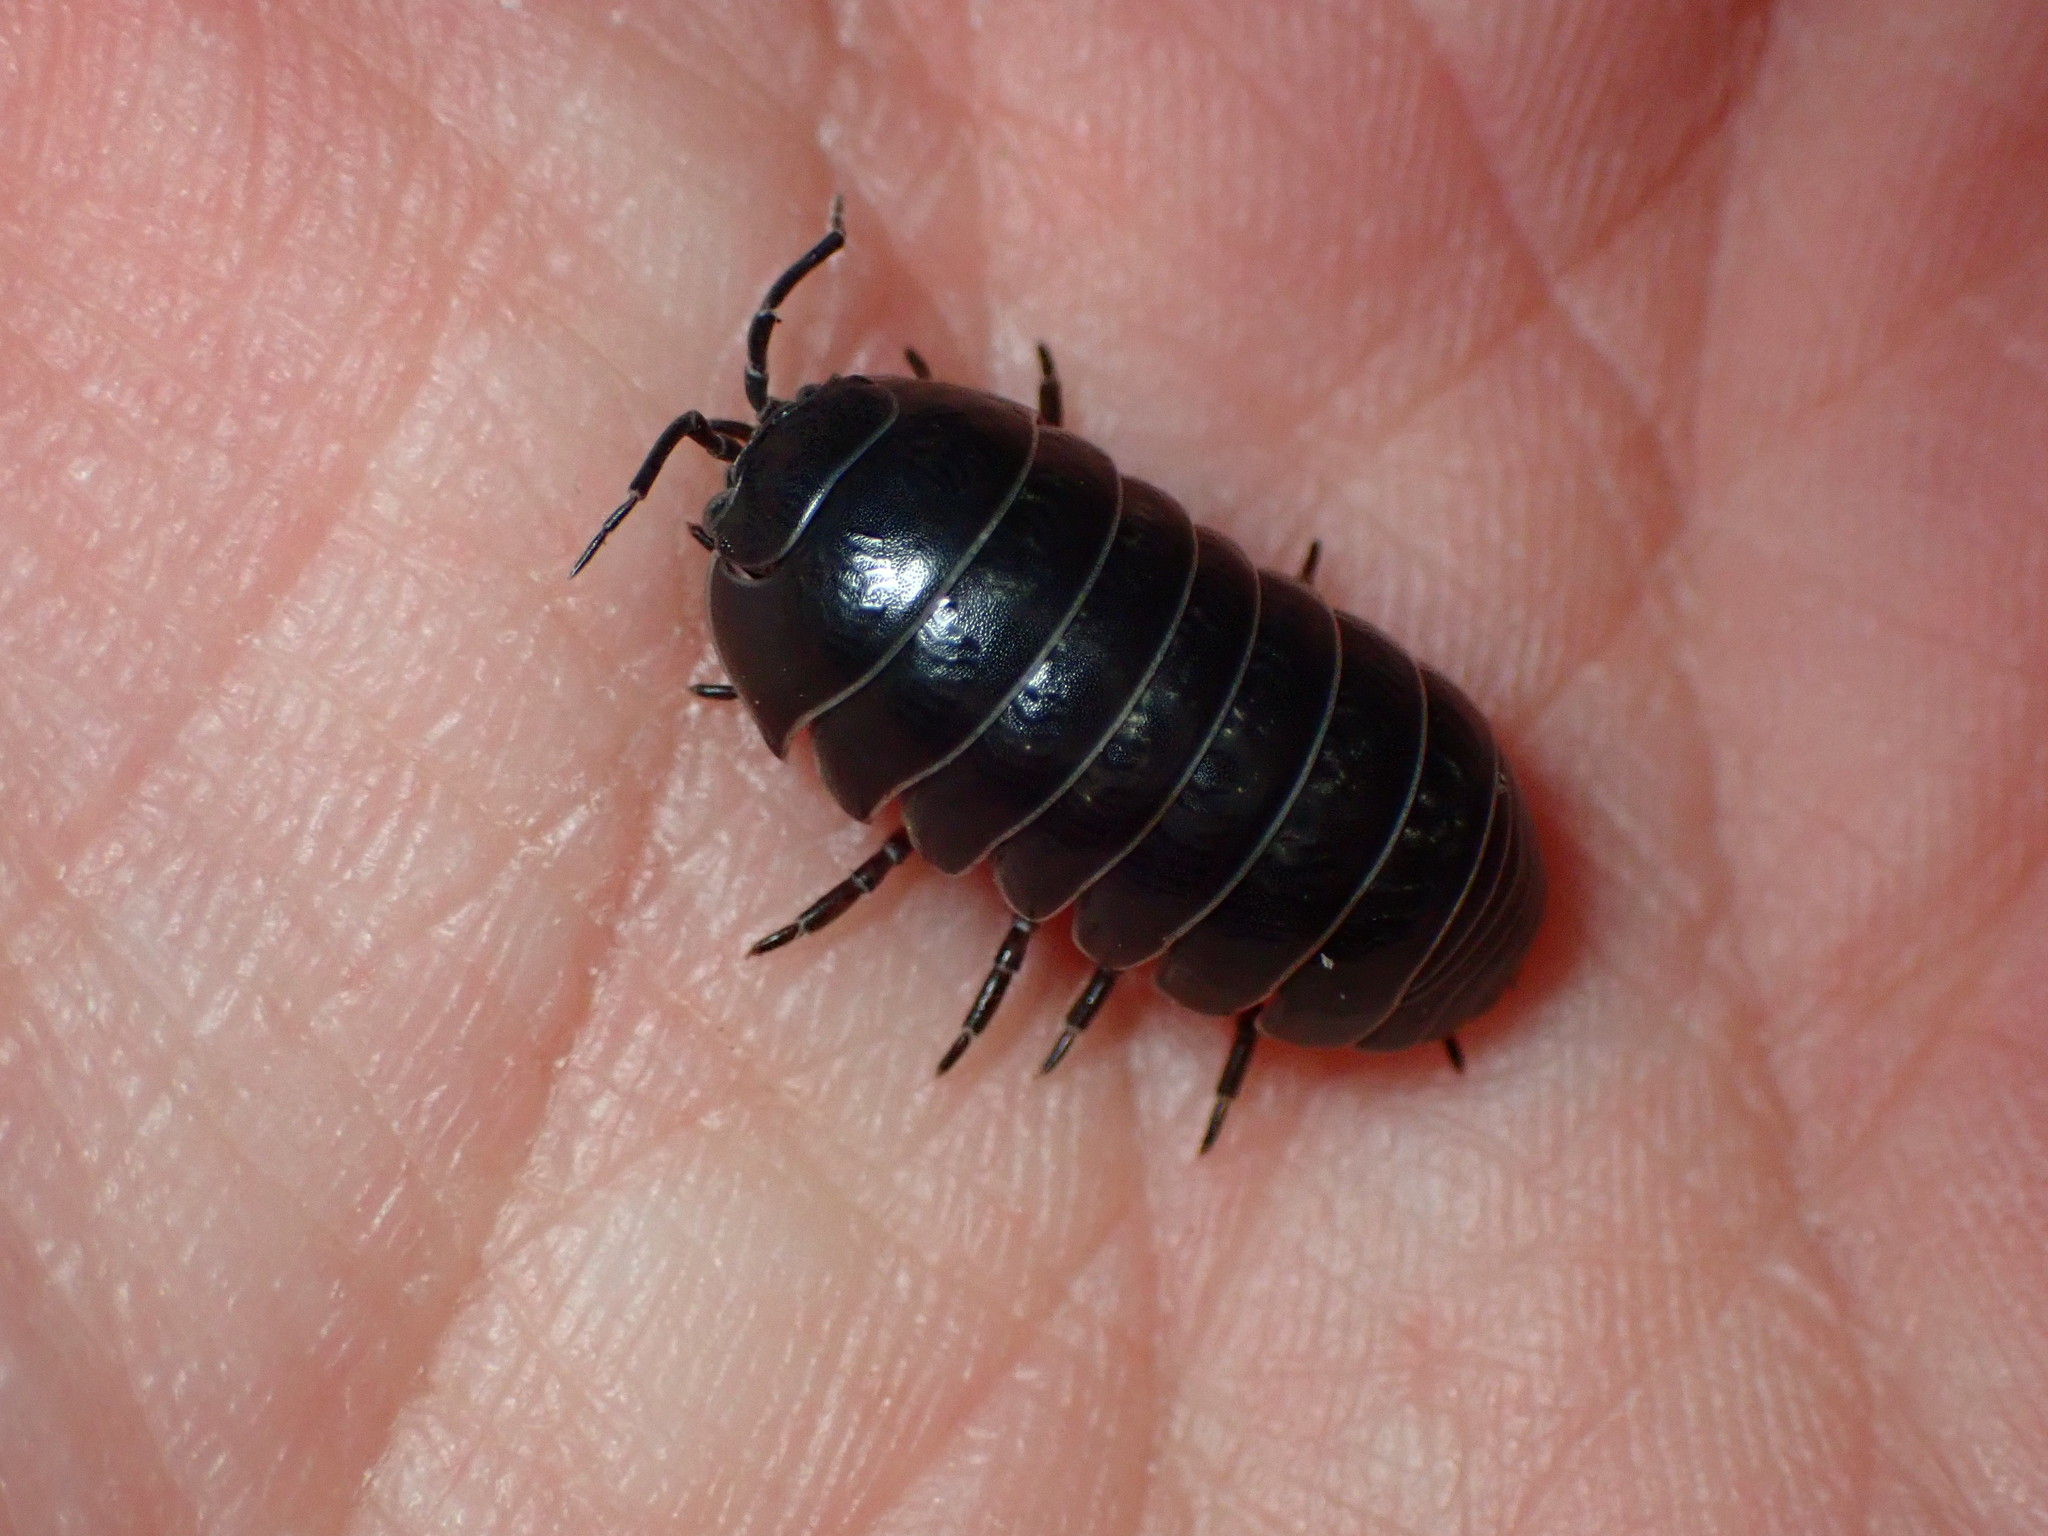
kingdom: Animalia
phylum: Arthropoda
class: Malacostraca
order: Isopoda
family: Armadillidiidae
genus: Armadillidium
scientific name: Armadillidium vulgare
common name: Common pill woodlouse
